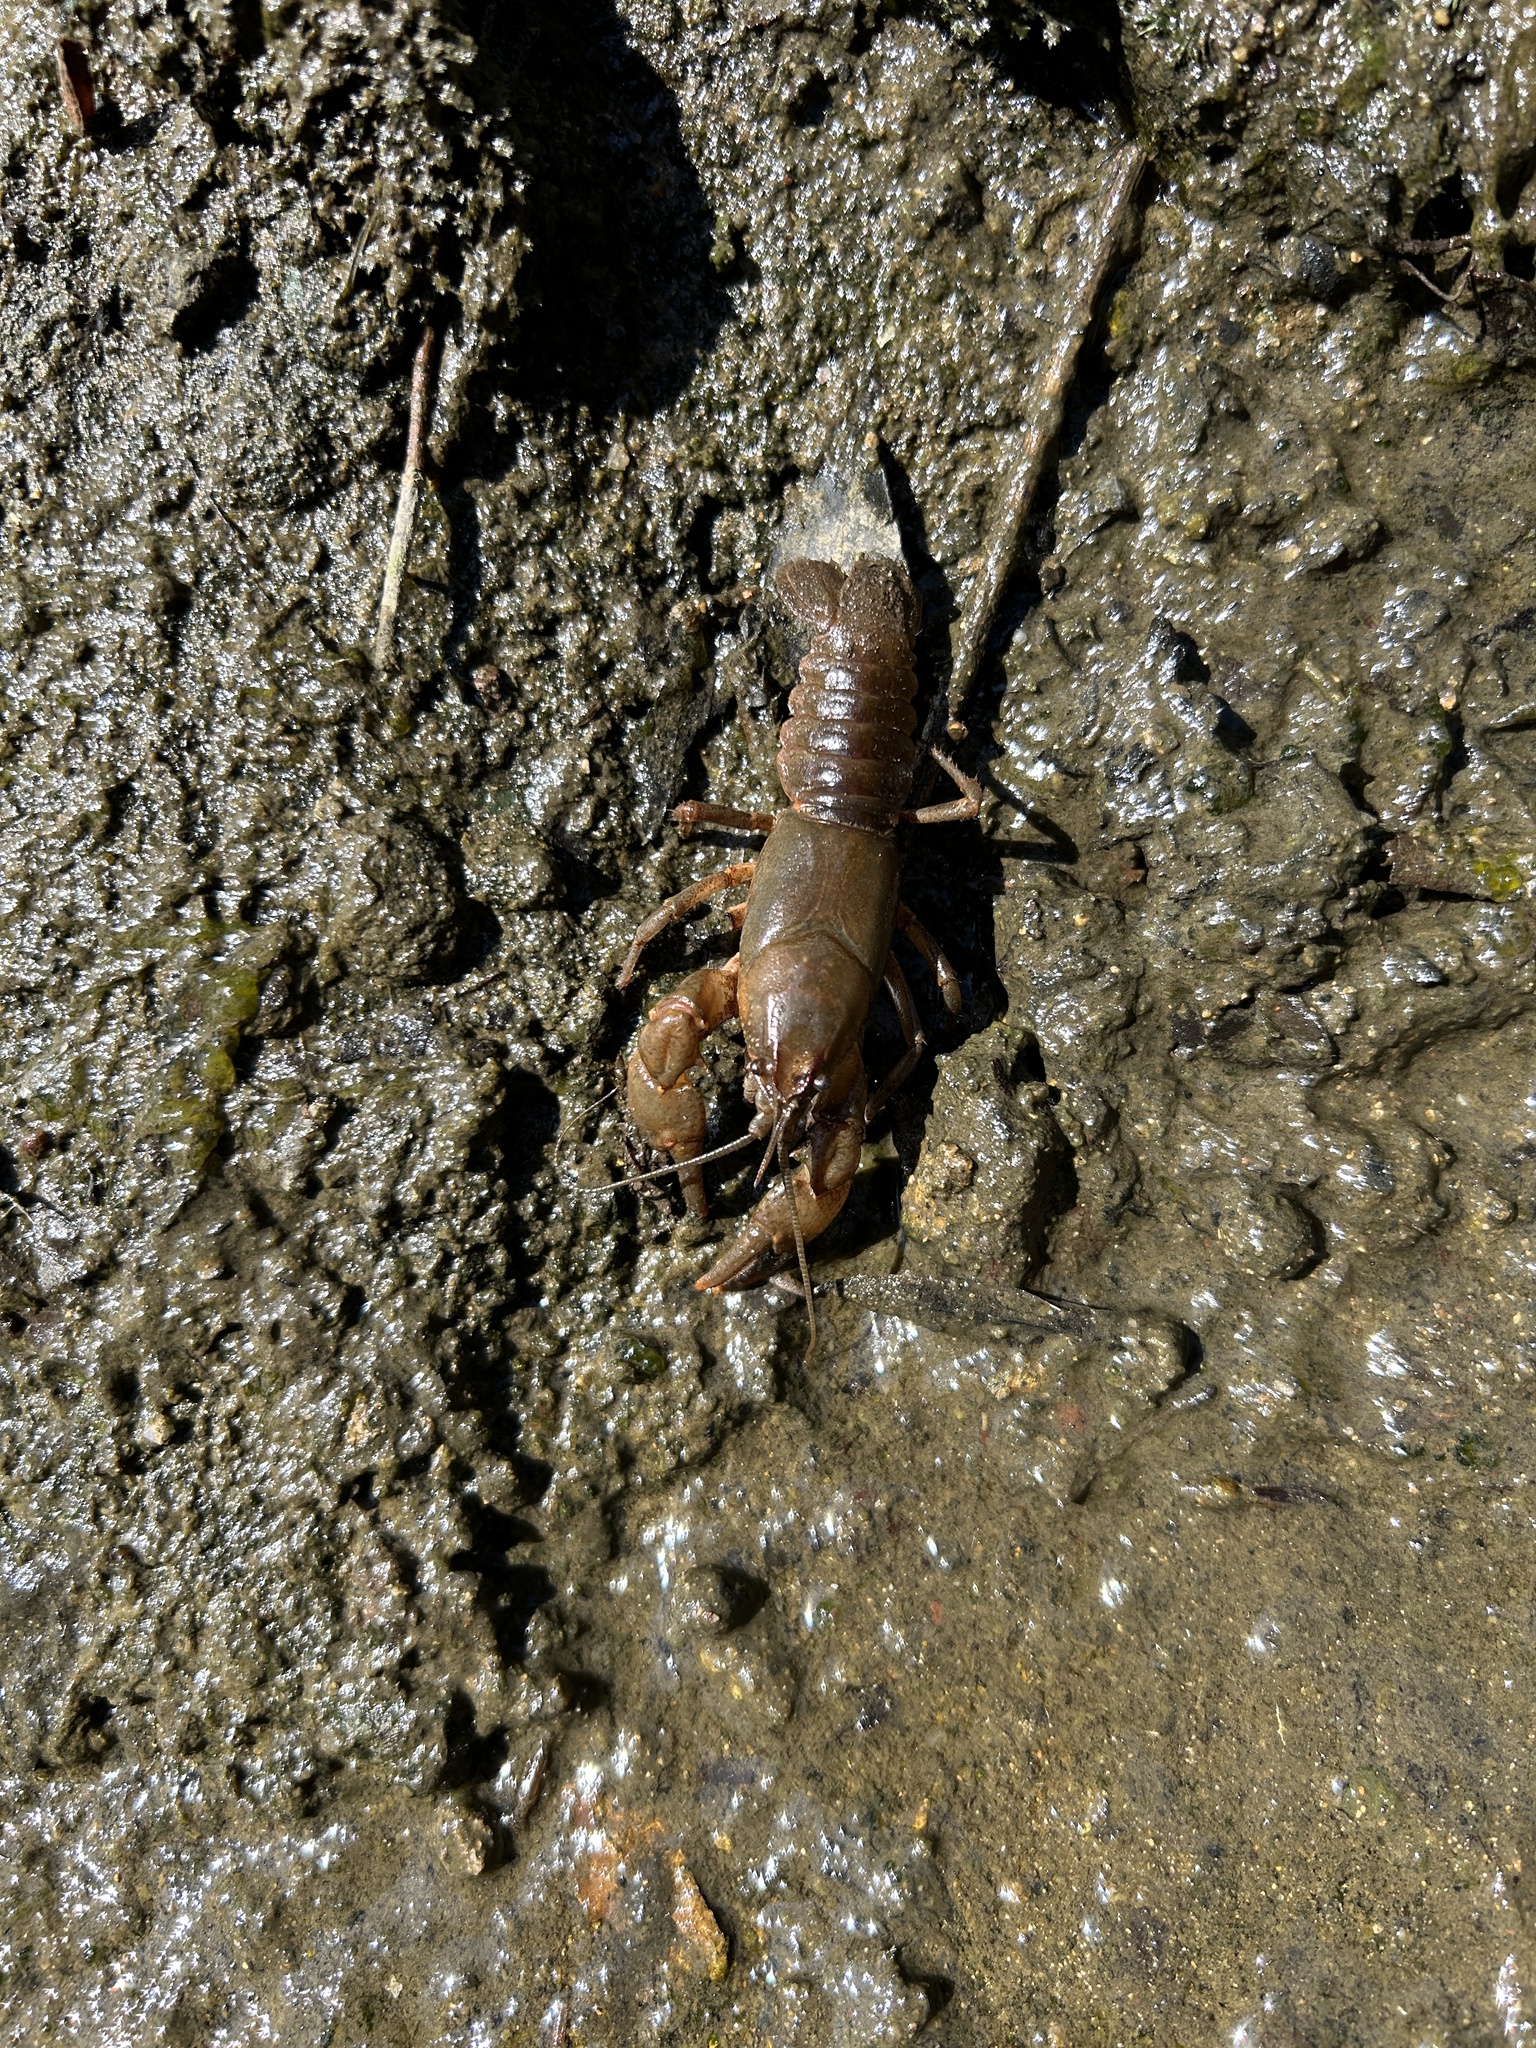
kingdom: Animalia
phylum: Arthropoda
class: Malacostraca
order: Decapoda
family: Cambaridae
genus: Cambarus
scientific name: Cambarus bartonii
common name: Appalachian brook crayfish
